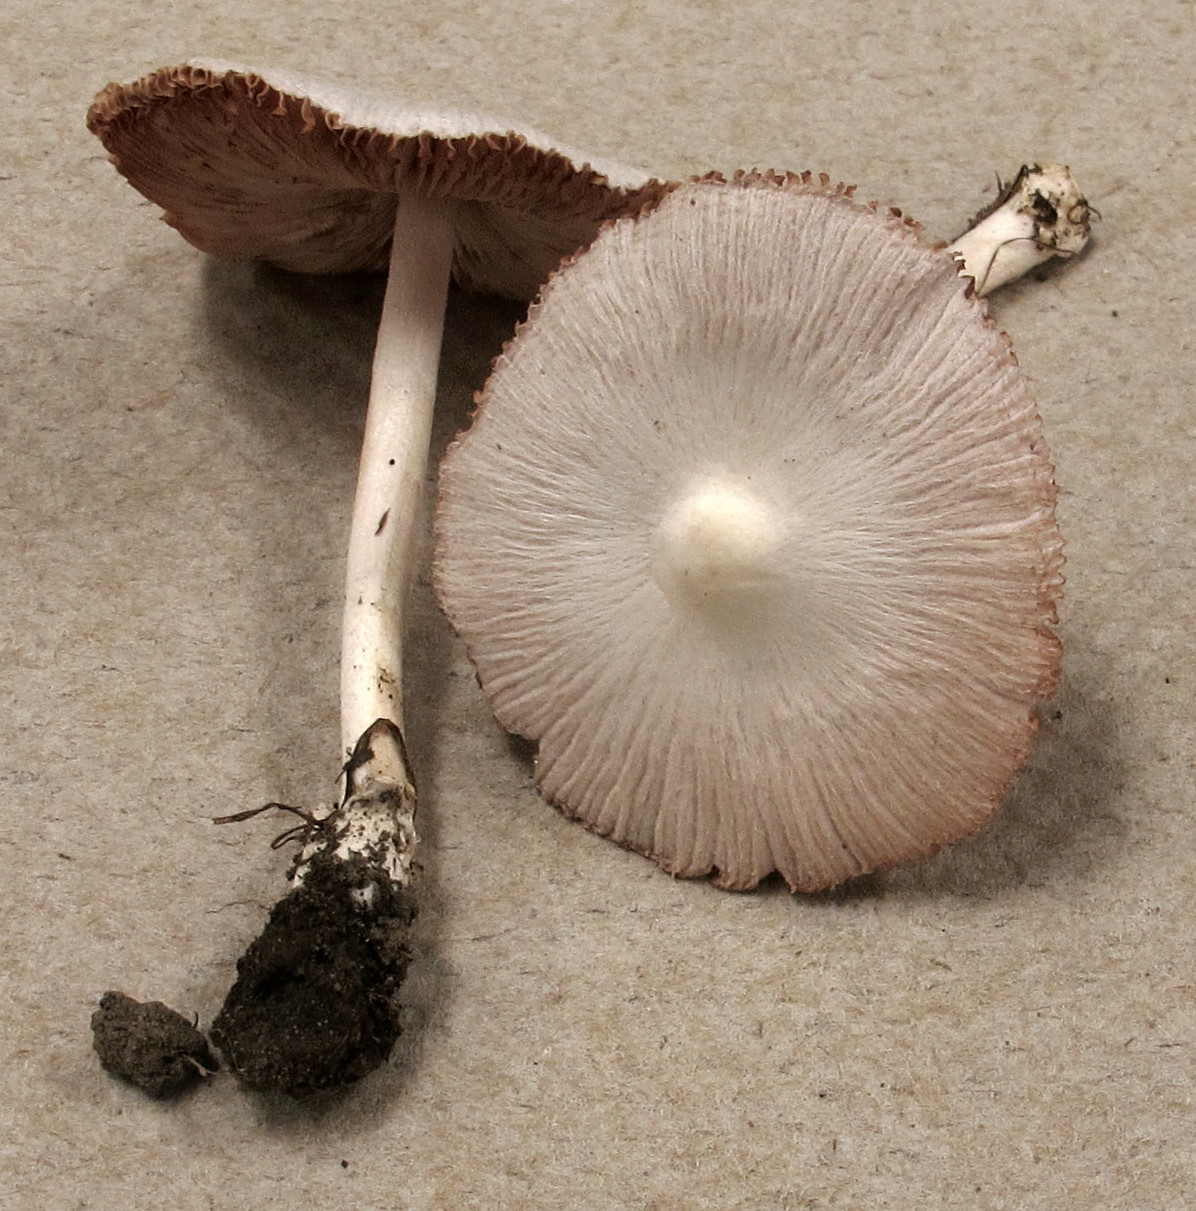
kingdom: Fungi
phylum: Basidiomycota
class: Agaricomycetes
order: Agaricales
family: Pluteaceae
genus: Volvariella
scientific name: Volvariella pusilla
